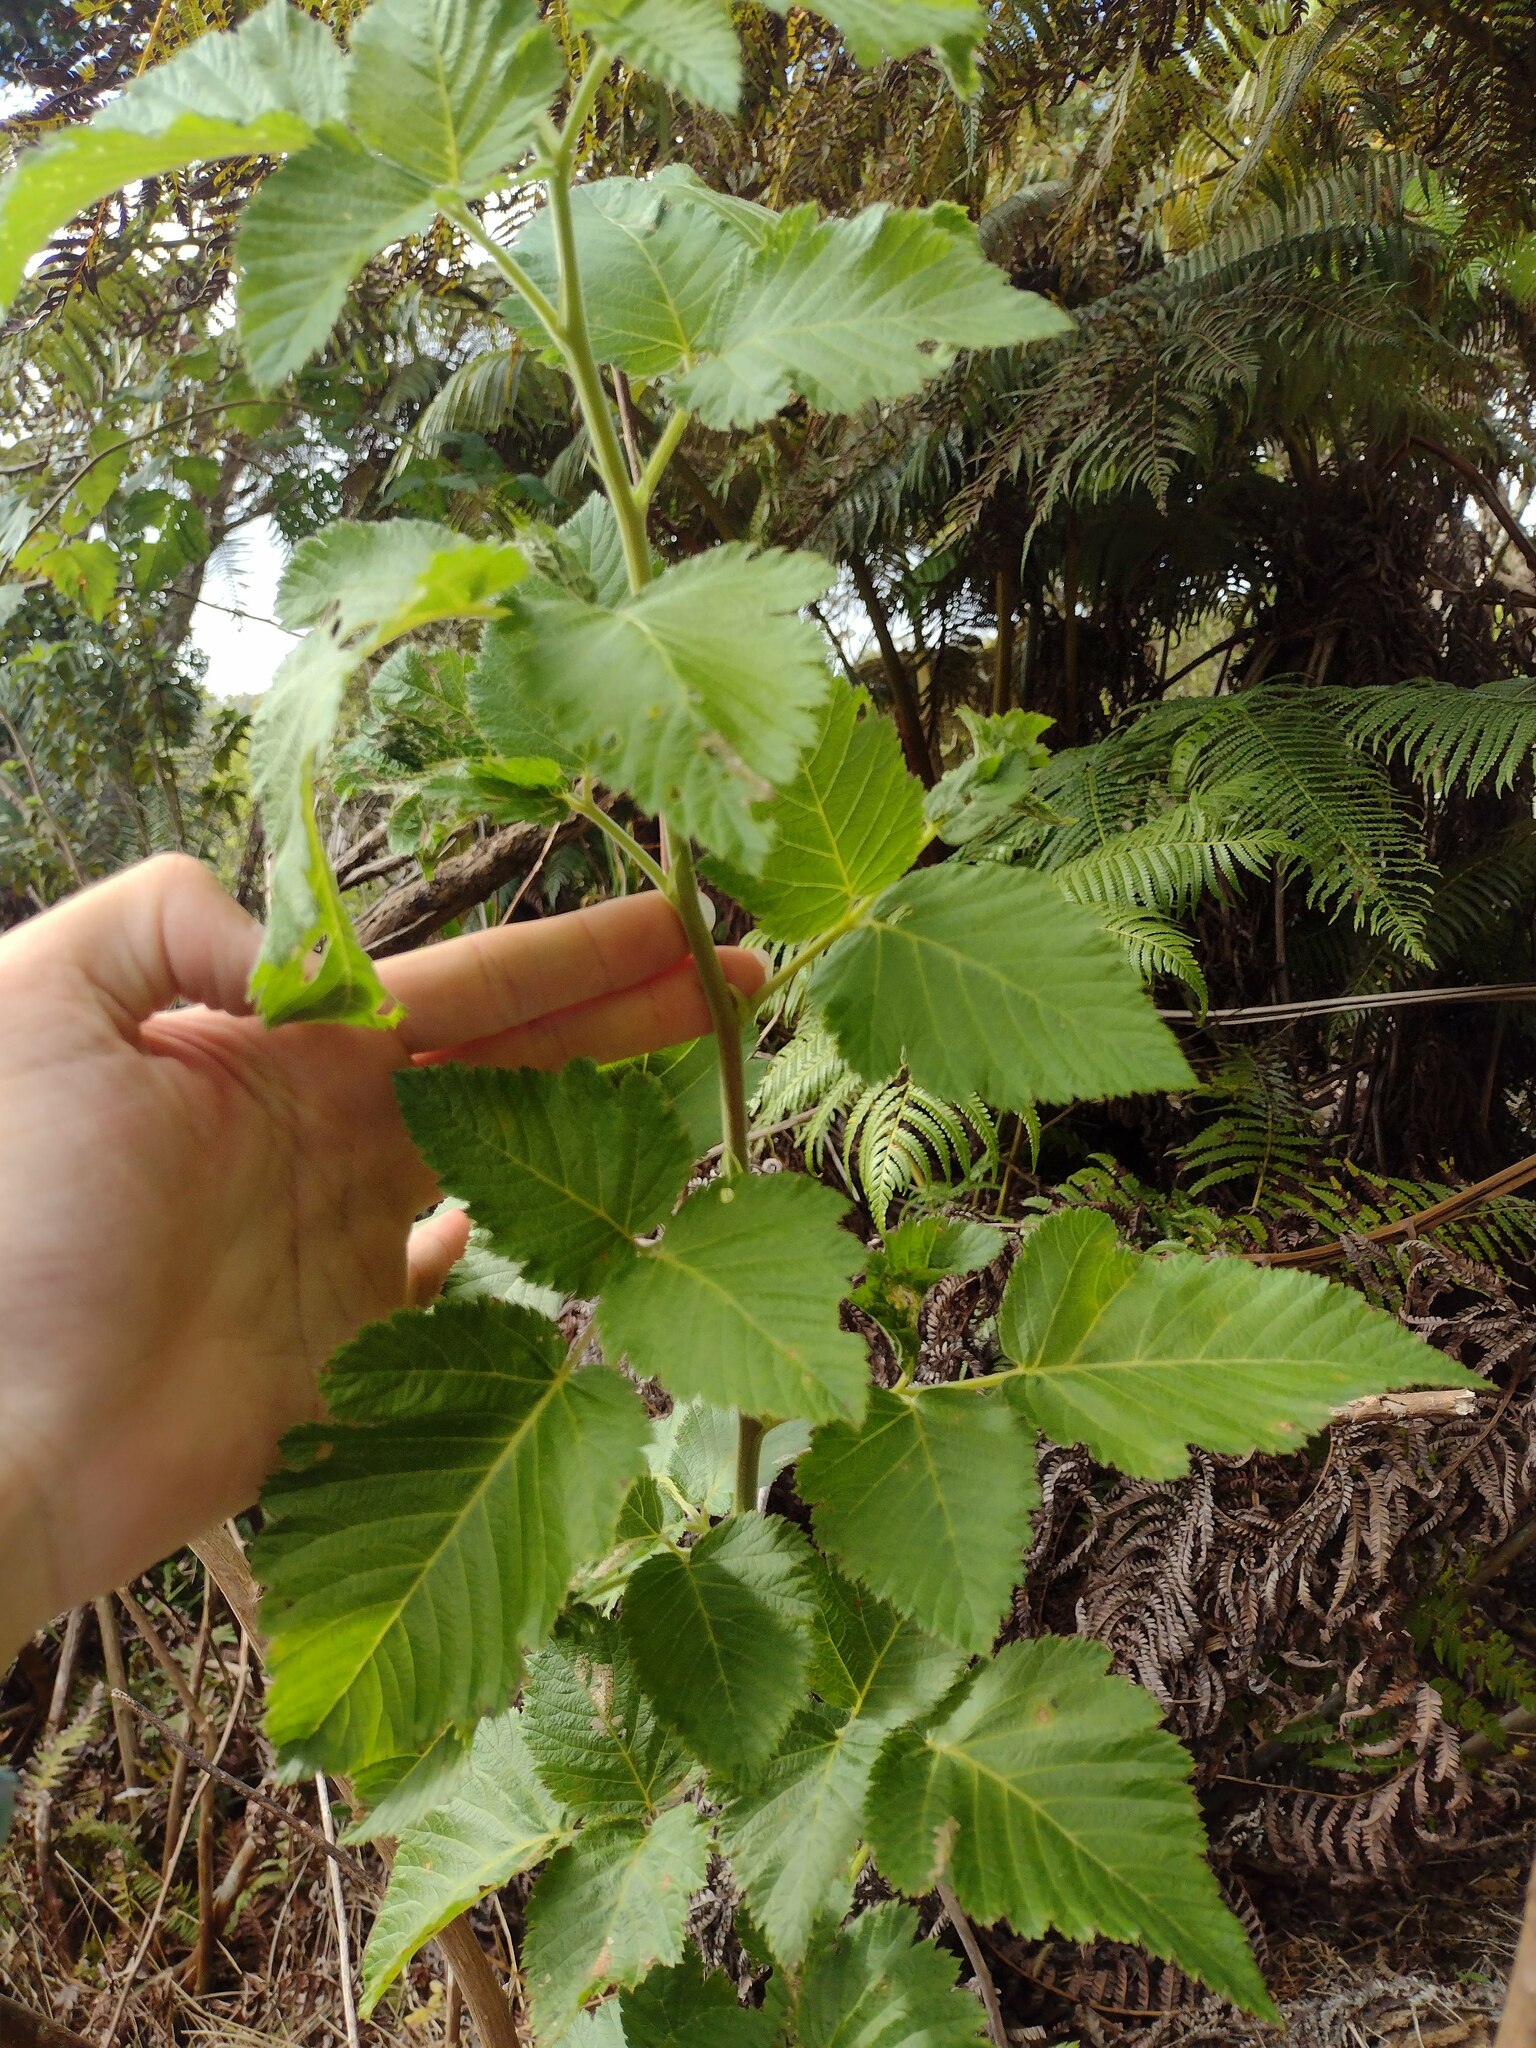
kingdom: Plantae
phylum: Tracheophyta
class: Magnoliopsida
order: Rosales
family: Rosaceae
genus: Rubus
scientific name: Rubus hawaiensis
